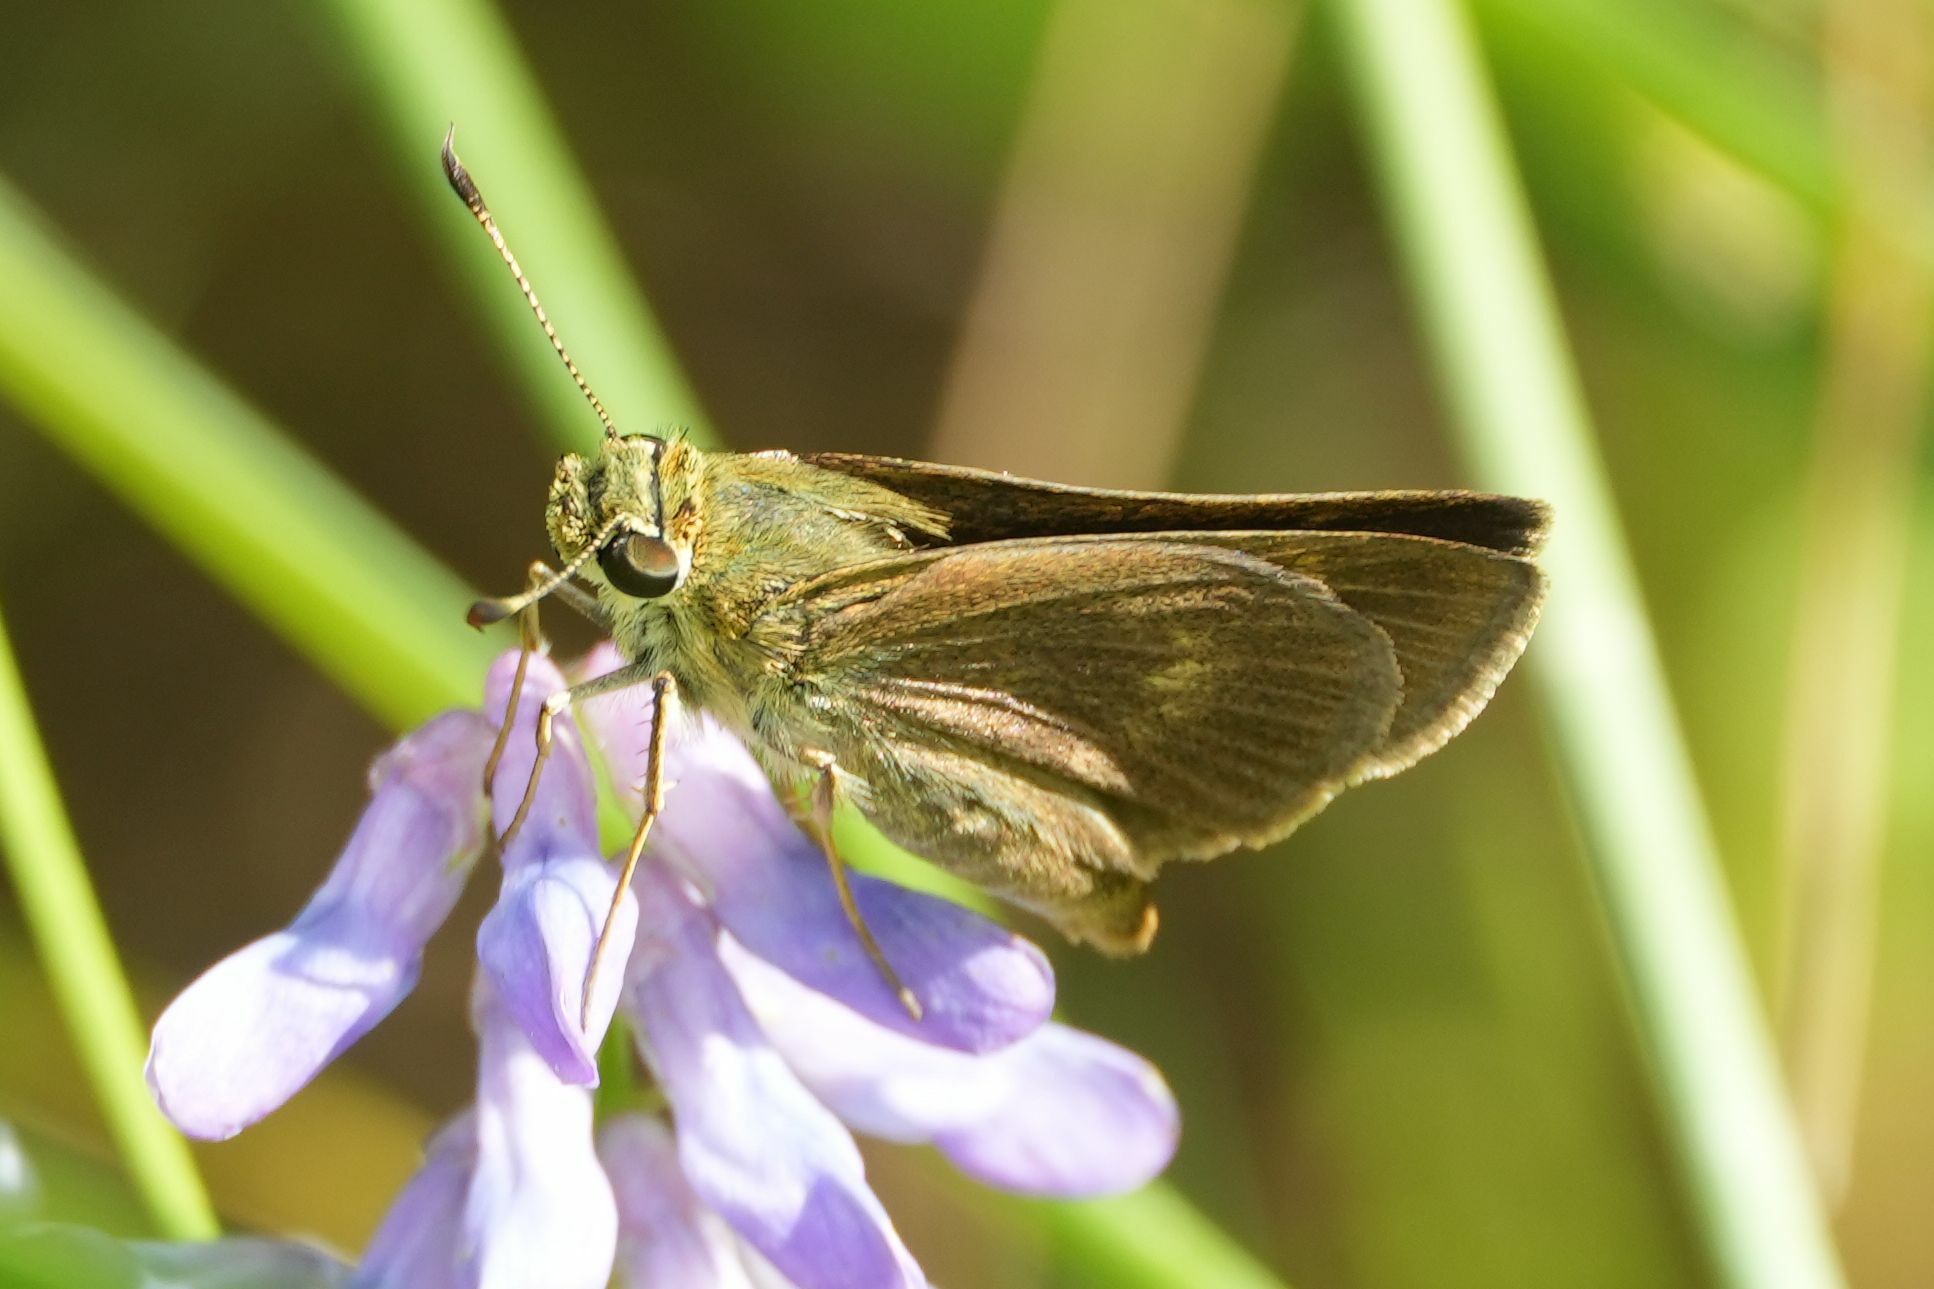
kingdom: Animalia
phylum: Arthropoda
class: Insecta
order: Lepidoptera
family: Hesperiidae
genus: Polites
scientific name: Polites egeremet
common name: Northern broken-dash
